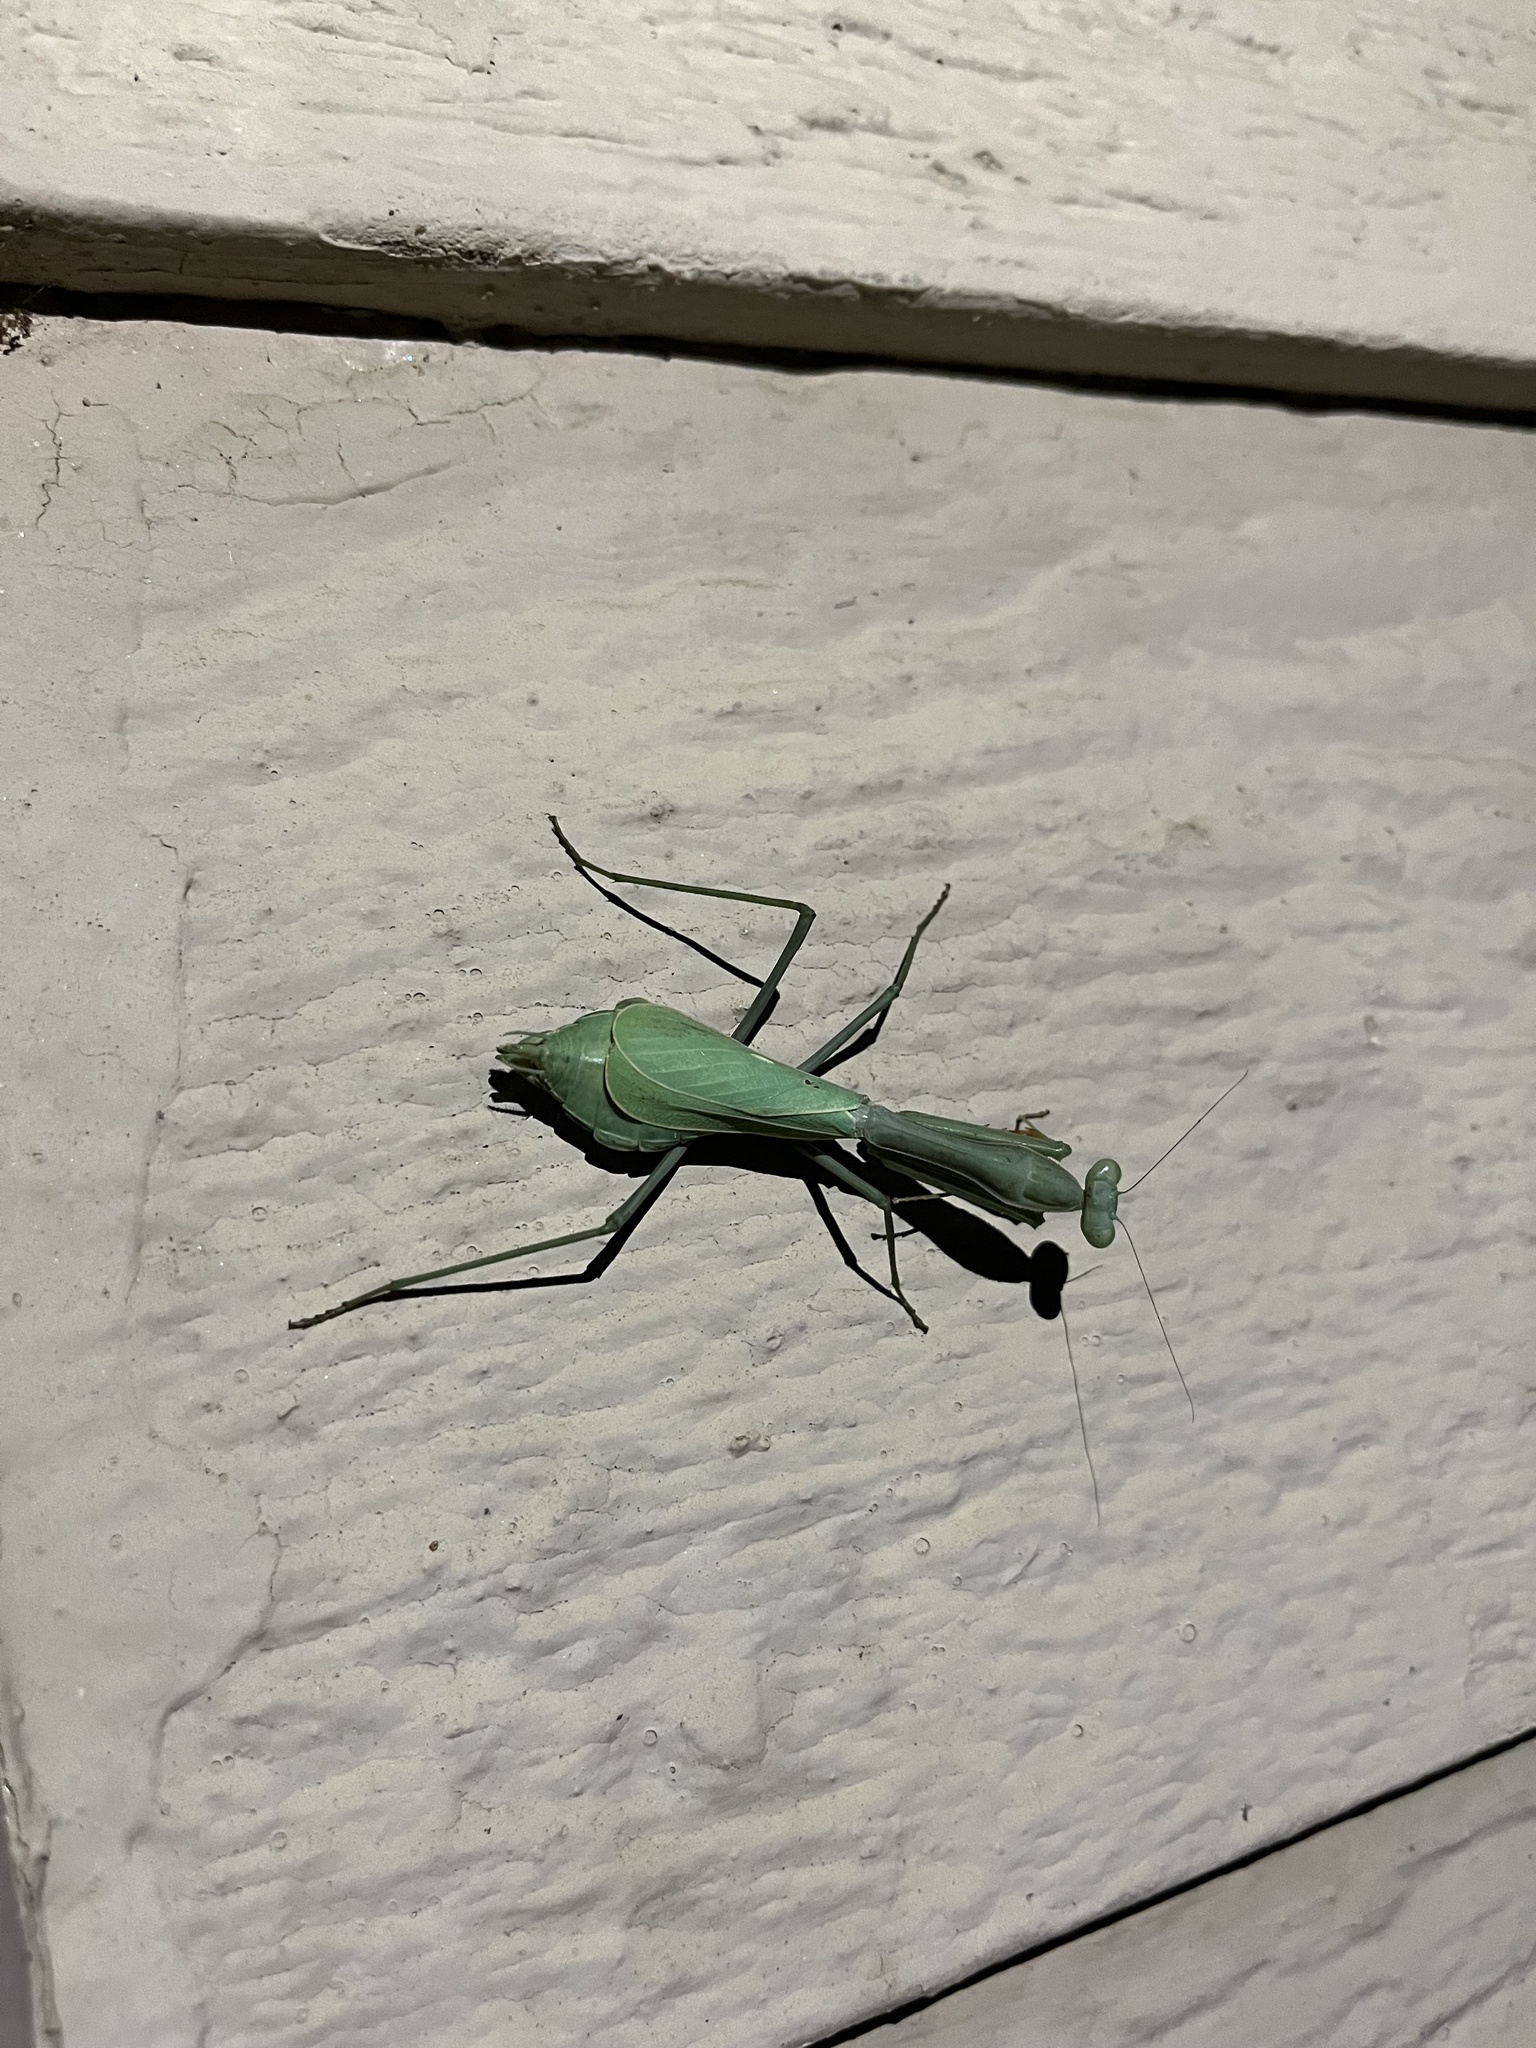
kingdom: Animalia
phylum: Arthropoda
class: Insecta
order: Mantodea
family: Mantidae
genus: Stagmomantis
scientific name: Stagmomantis limbata
